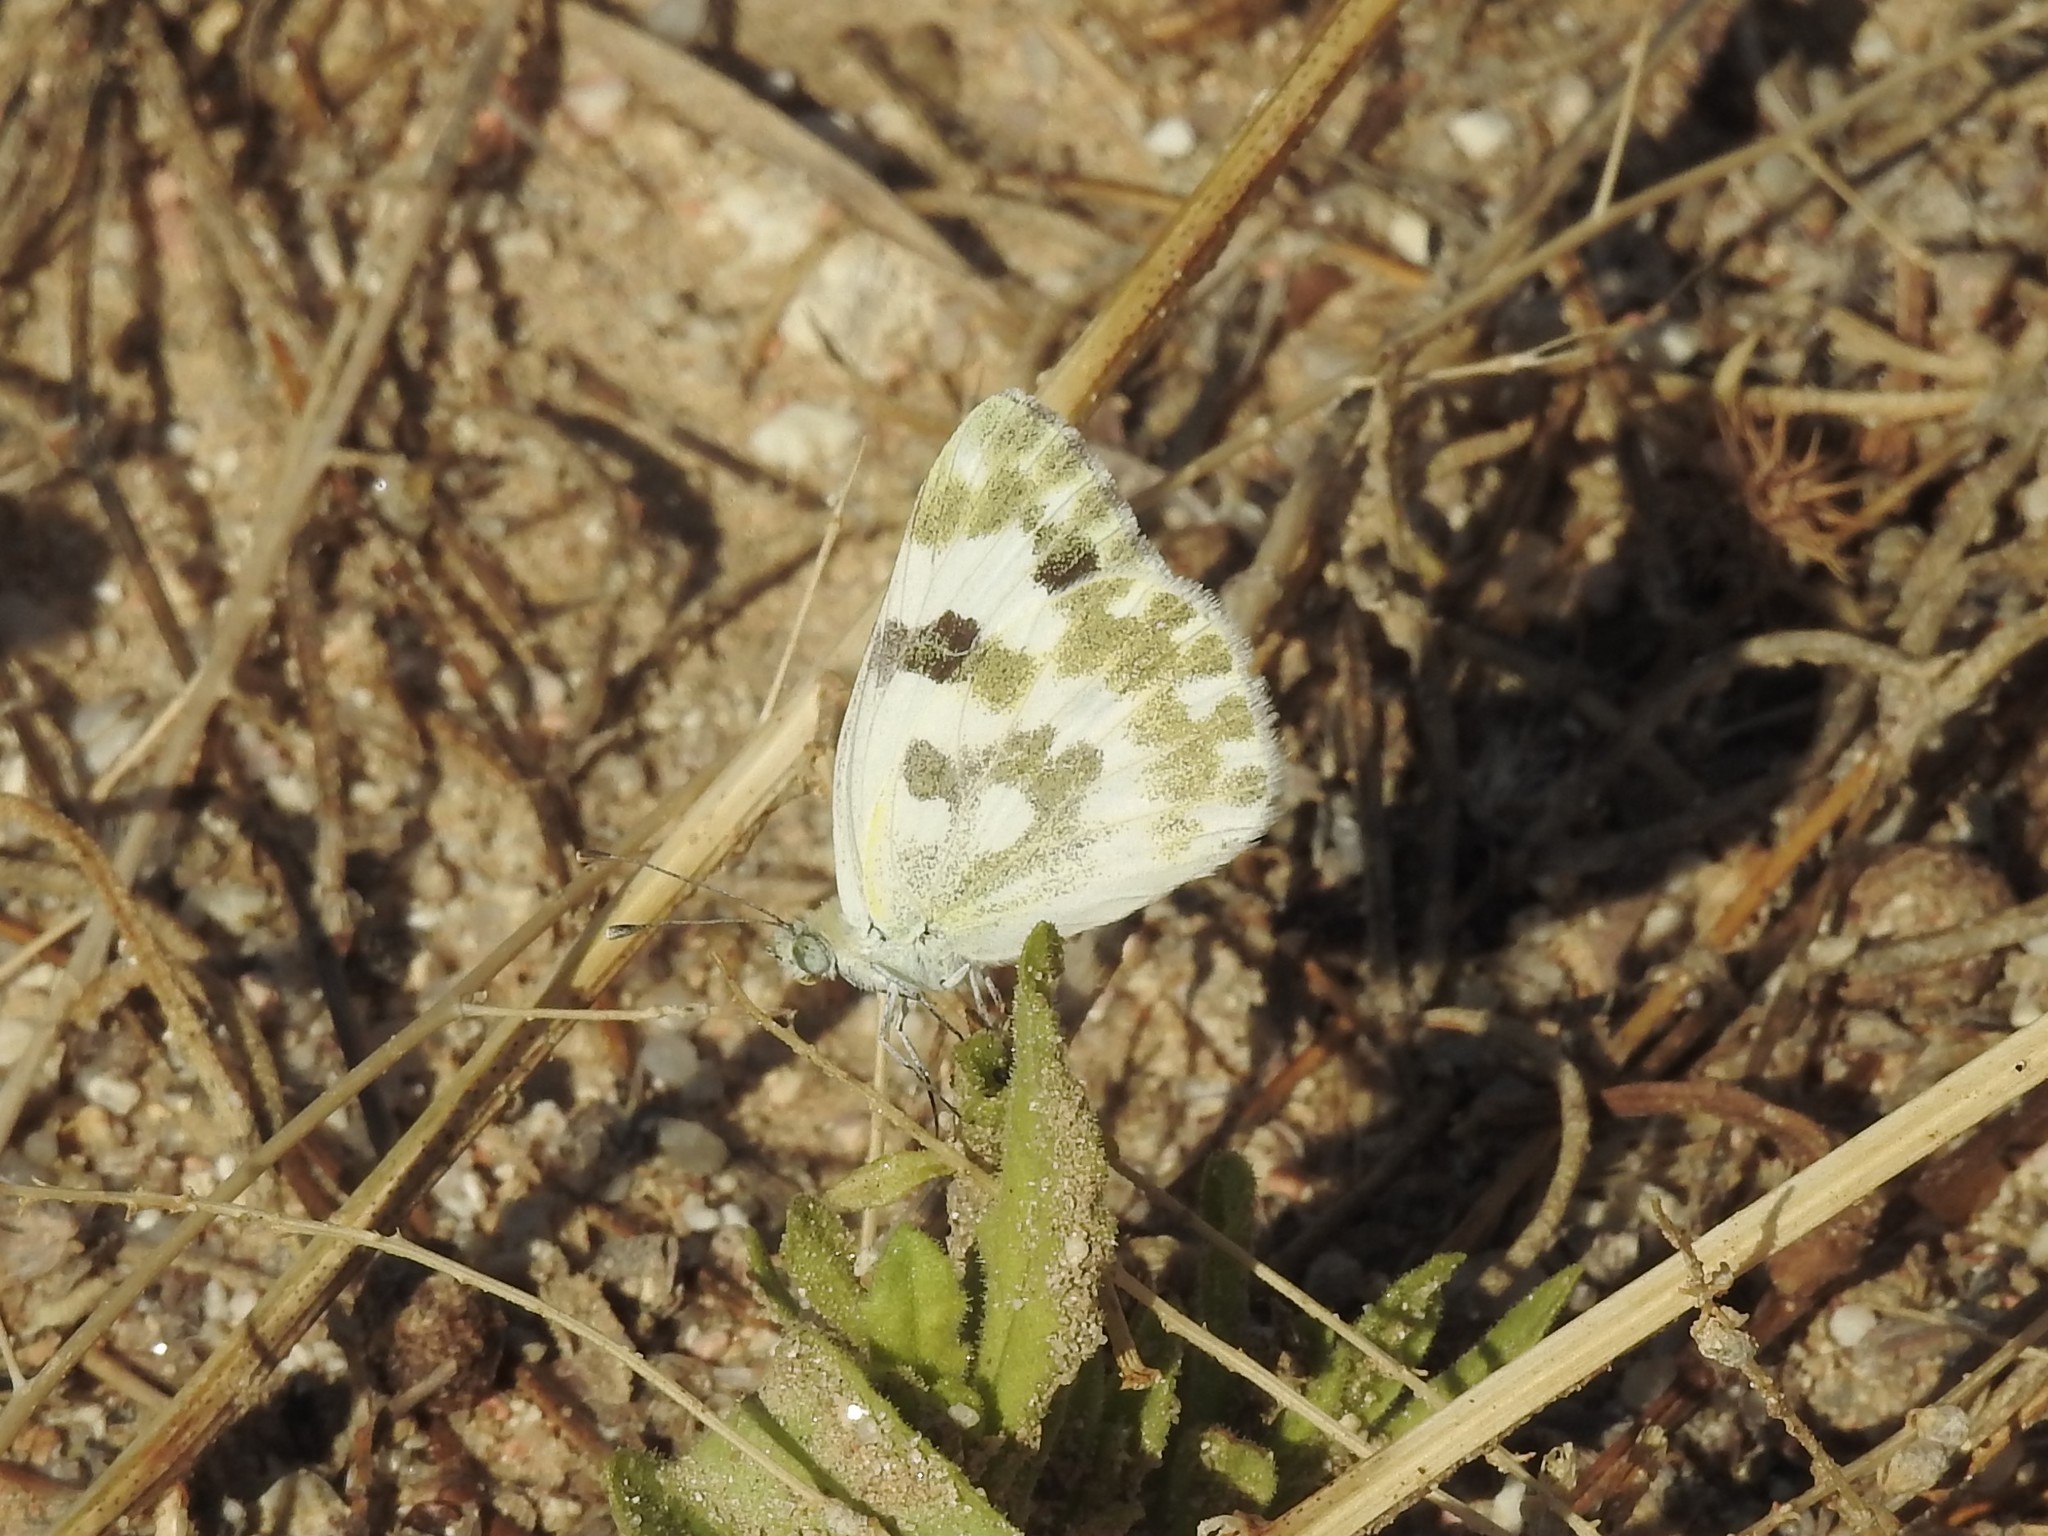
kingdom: Animalia
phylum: Arthropoda
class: Insecta
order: Lepidoptera
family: Pieridae
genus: Pontia
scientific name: Pontia daplidice
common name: Bath white
